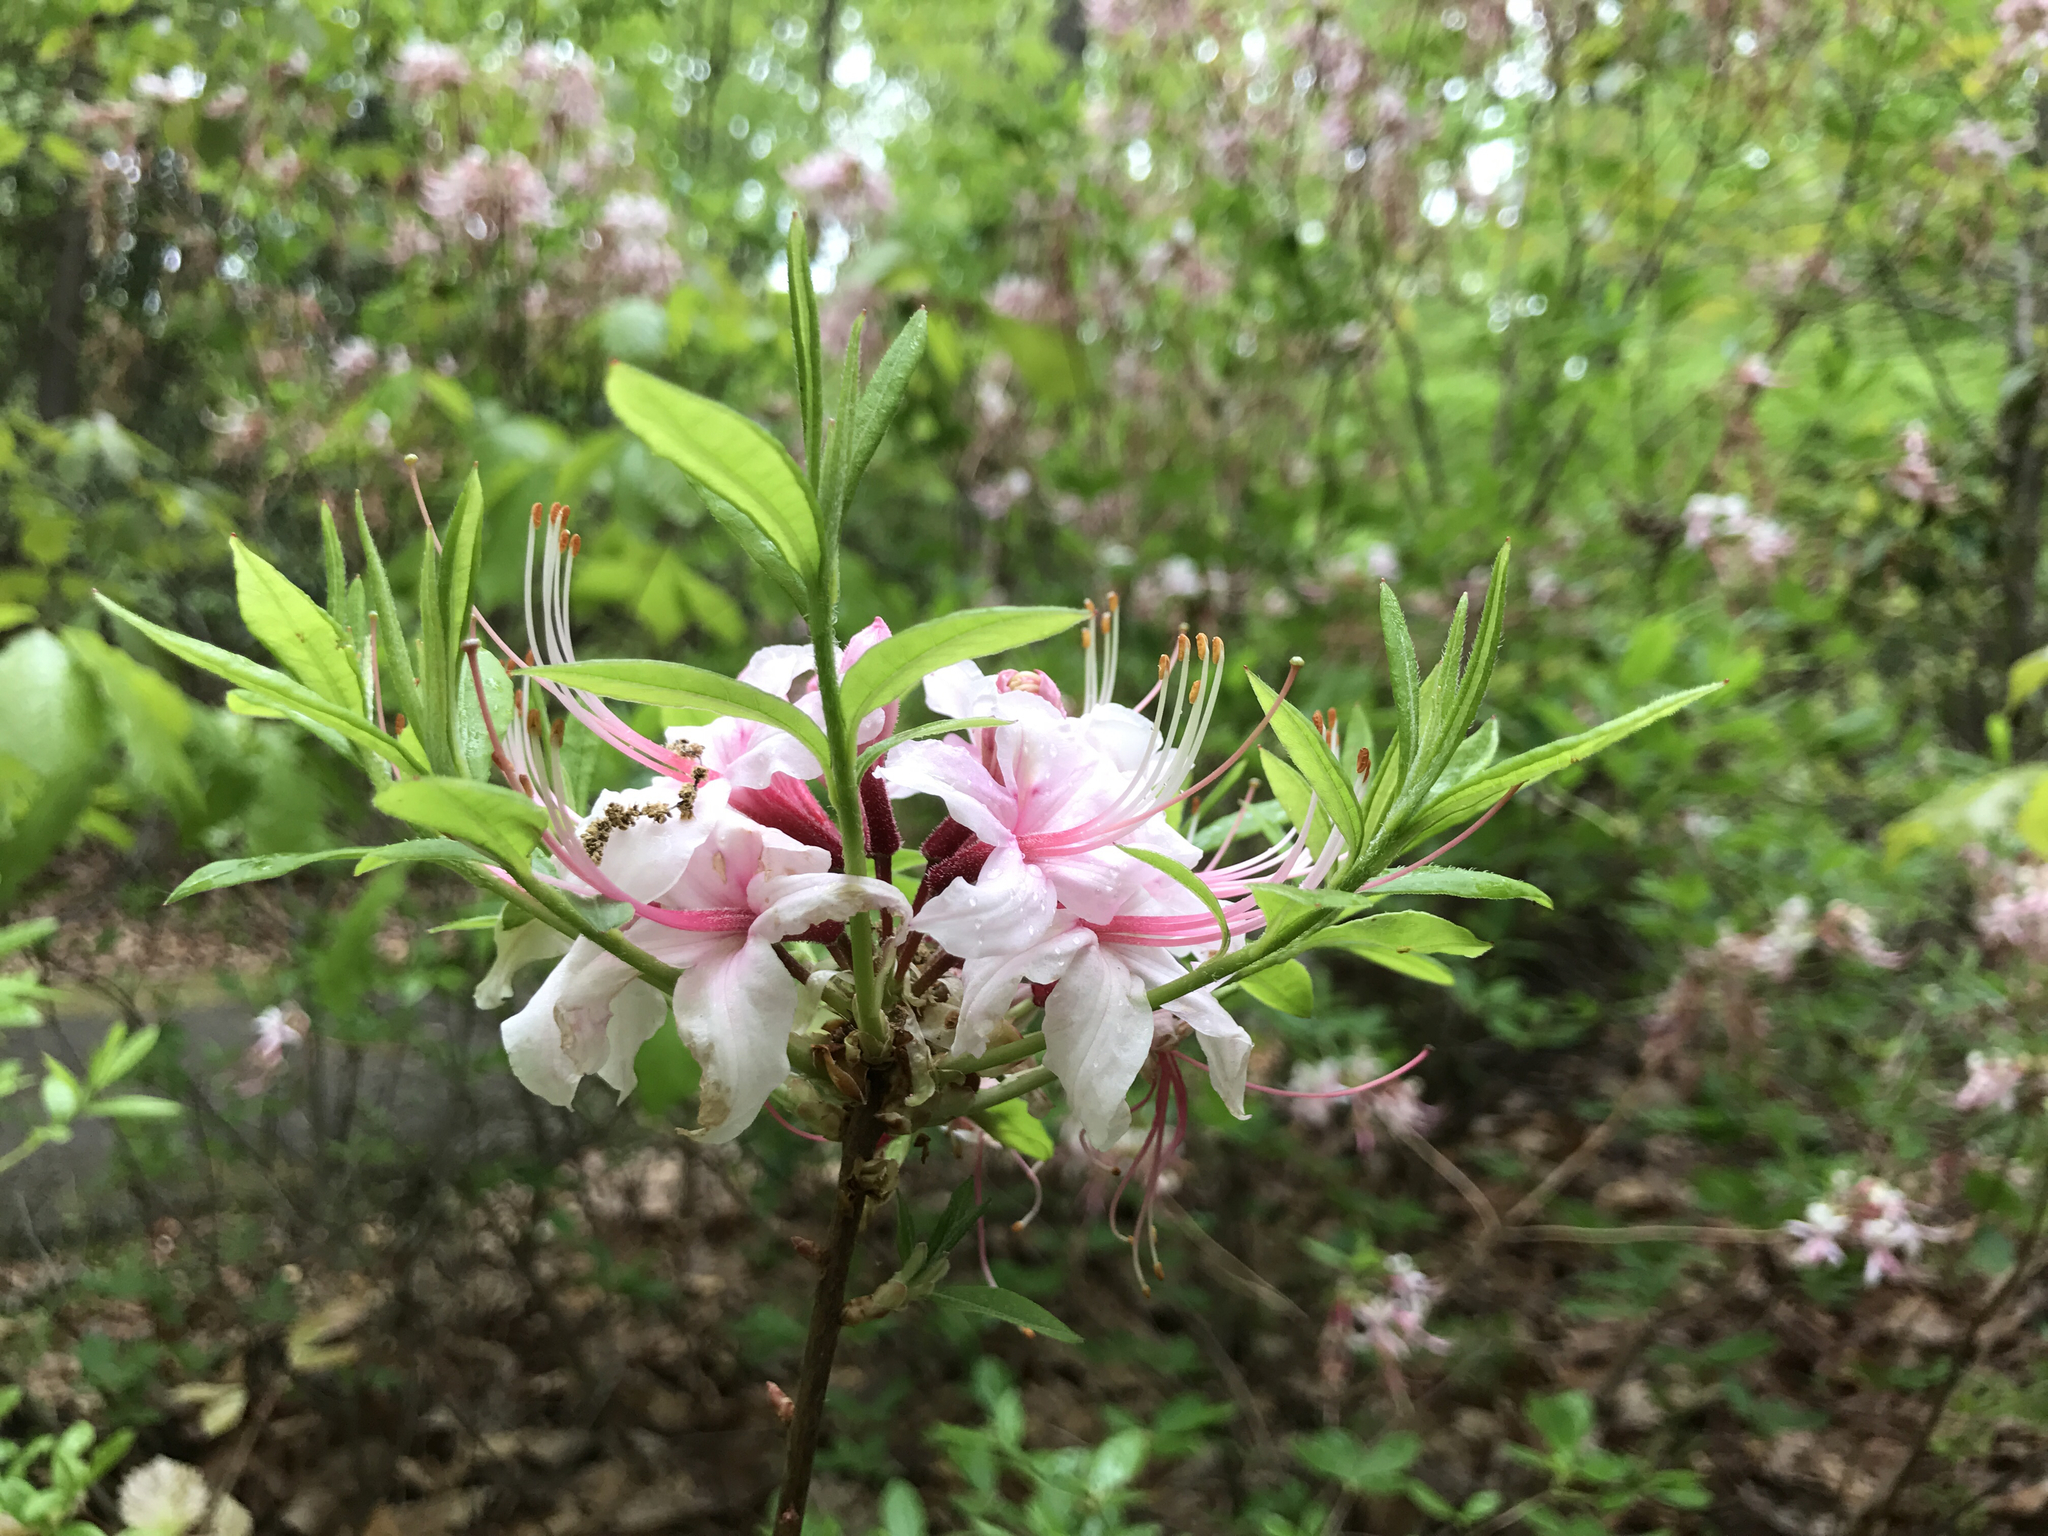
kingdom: Plantae
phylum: Tracheophyta
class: Magnoliopsida
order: Ericales
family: Ericaceae
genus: Rhododendron
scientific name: Rhododendron periclymenoides
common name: Election-pink
